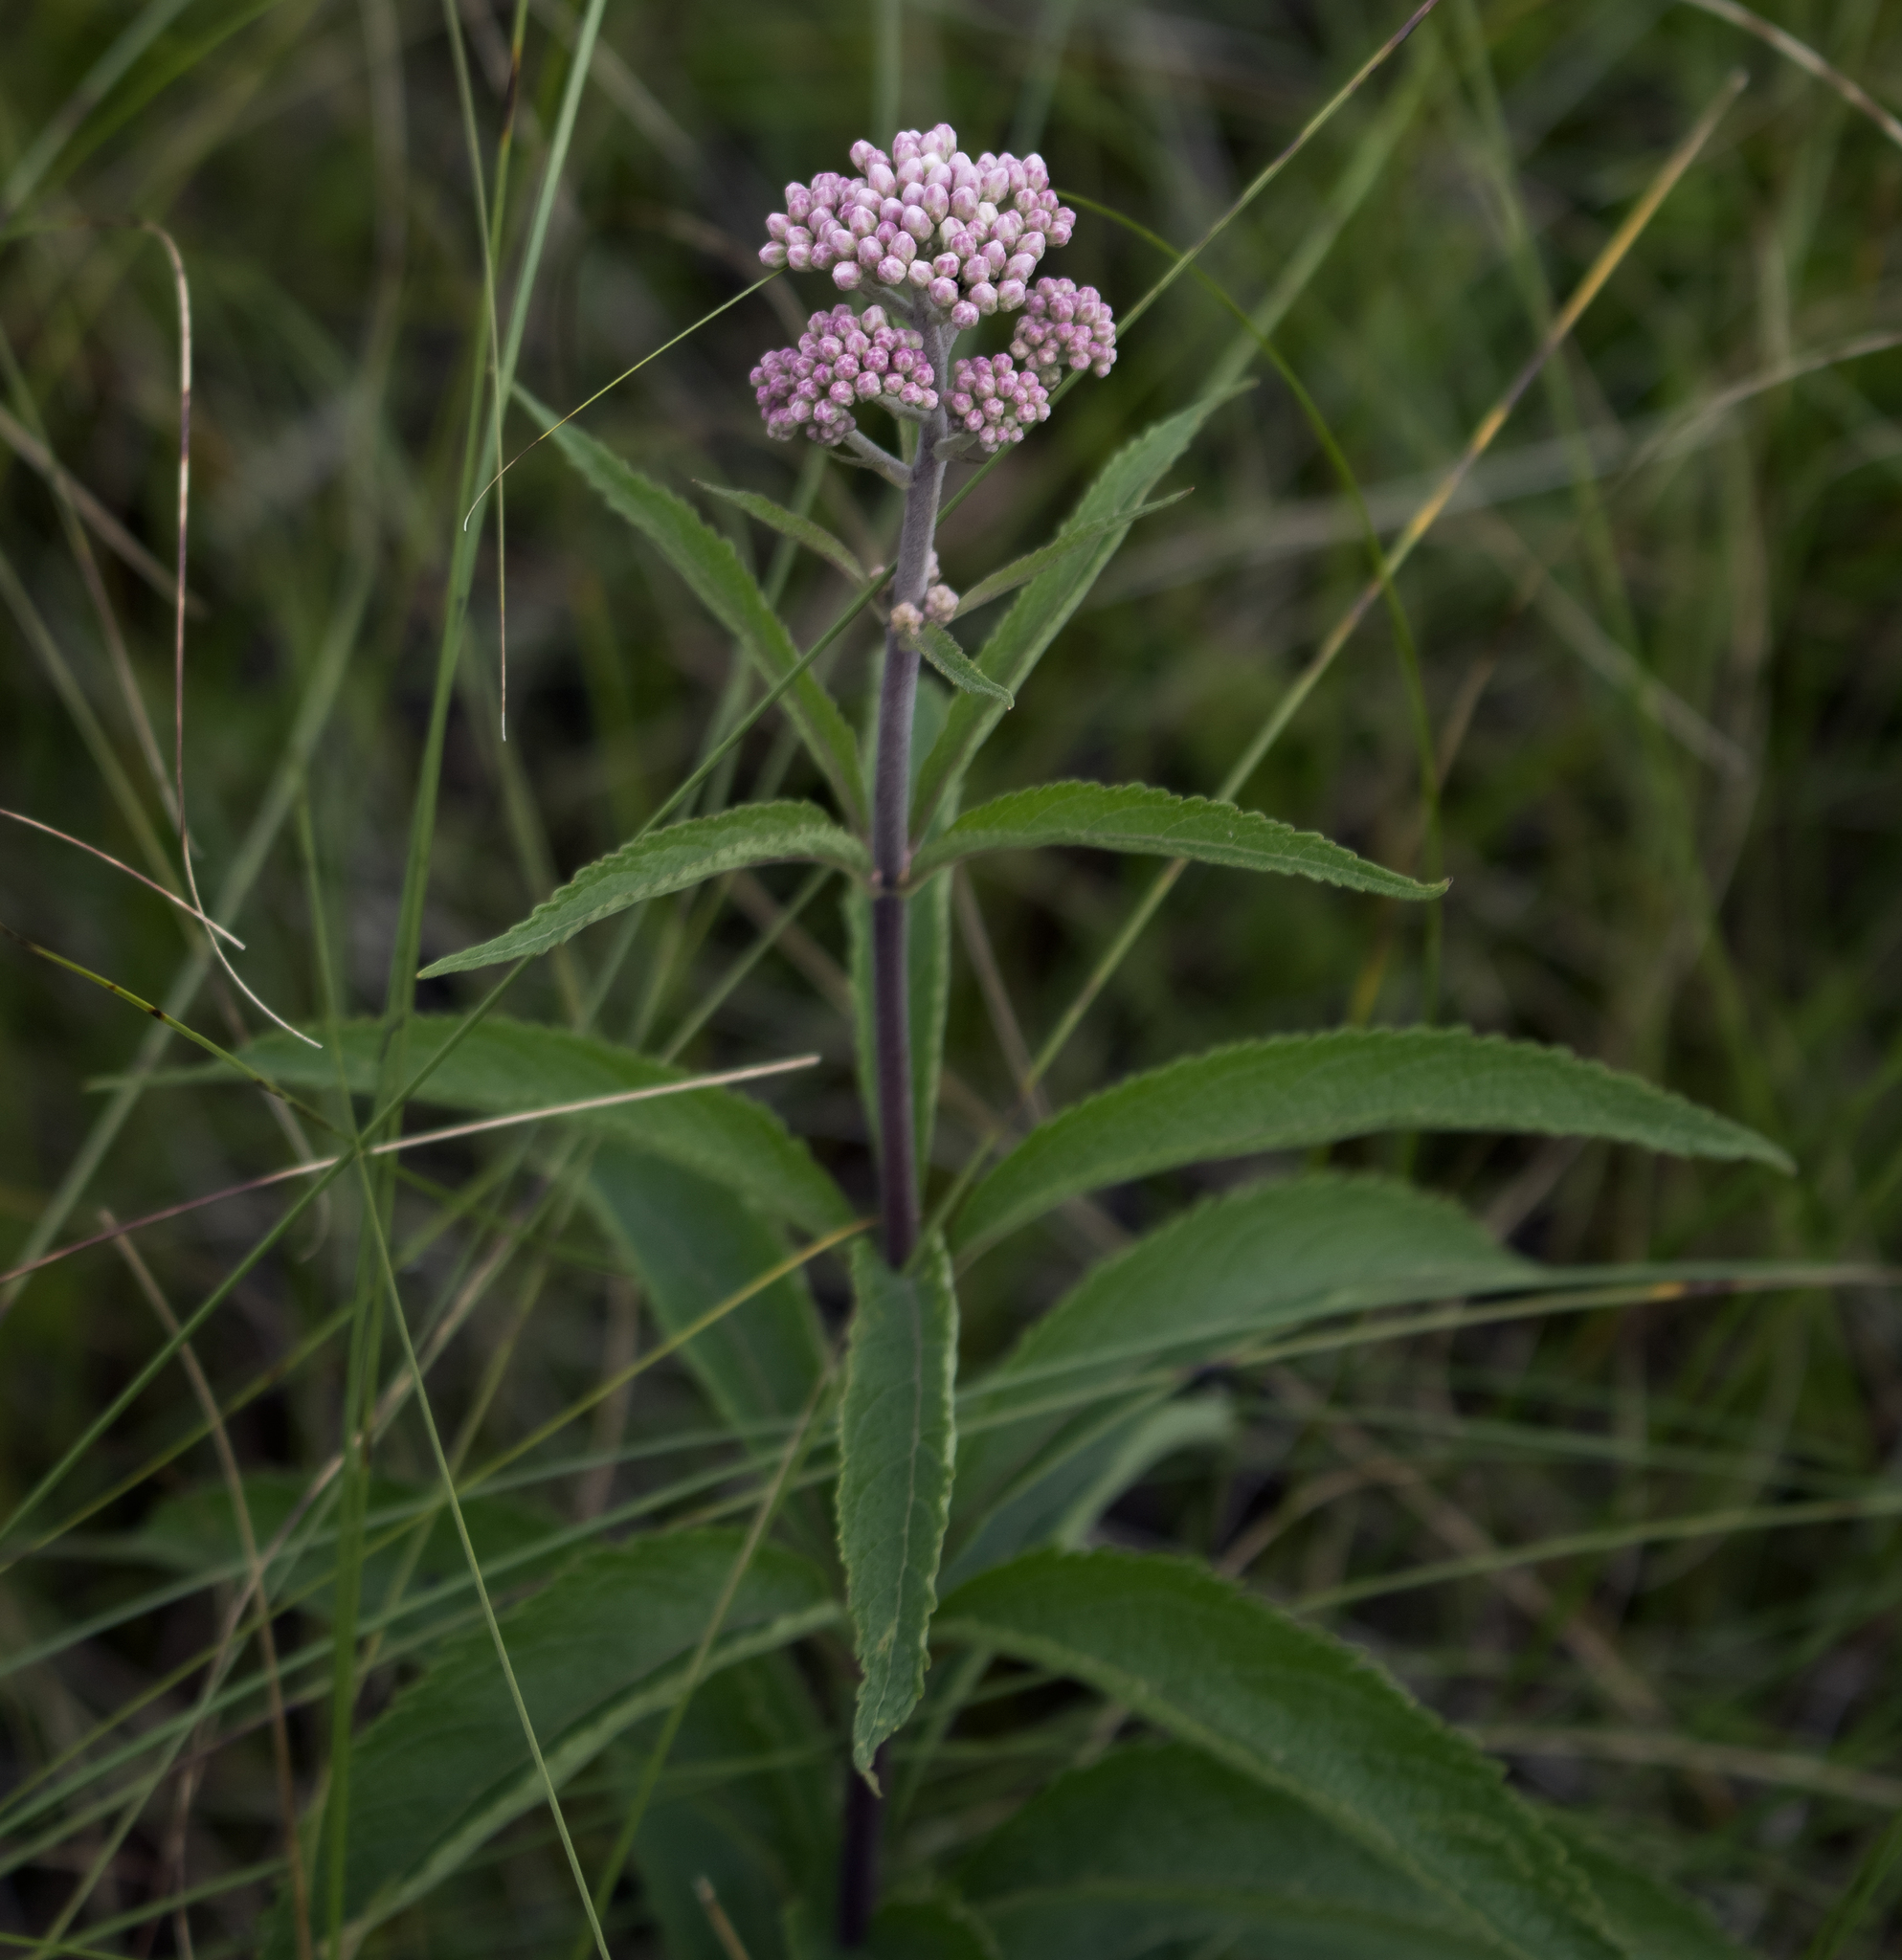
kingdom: Plantae
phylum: Tracheophyta
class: Magnoliopsida
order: Asterales
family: Asteraceae
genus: Eutrochium
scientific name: Eutrochium maculatum
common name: Spotted joe pye weed
